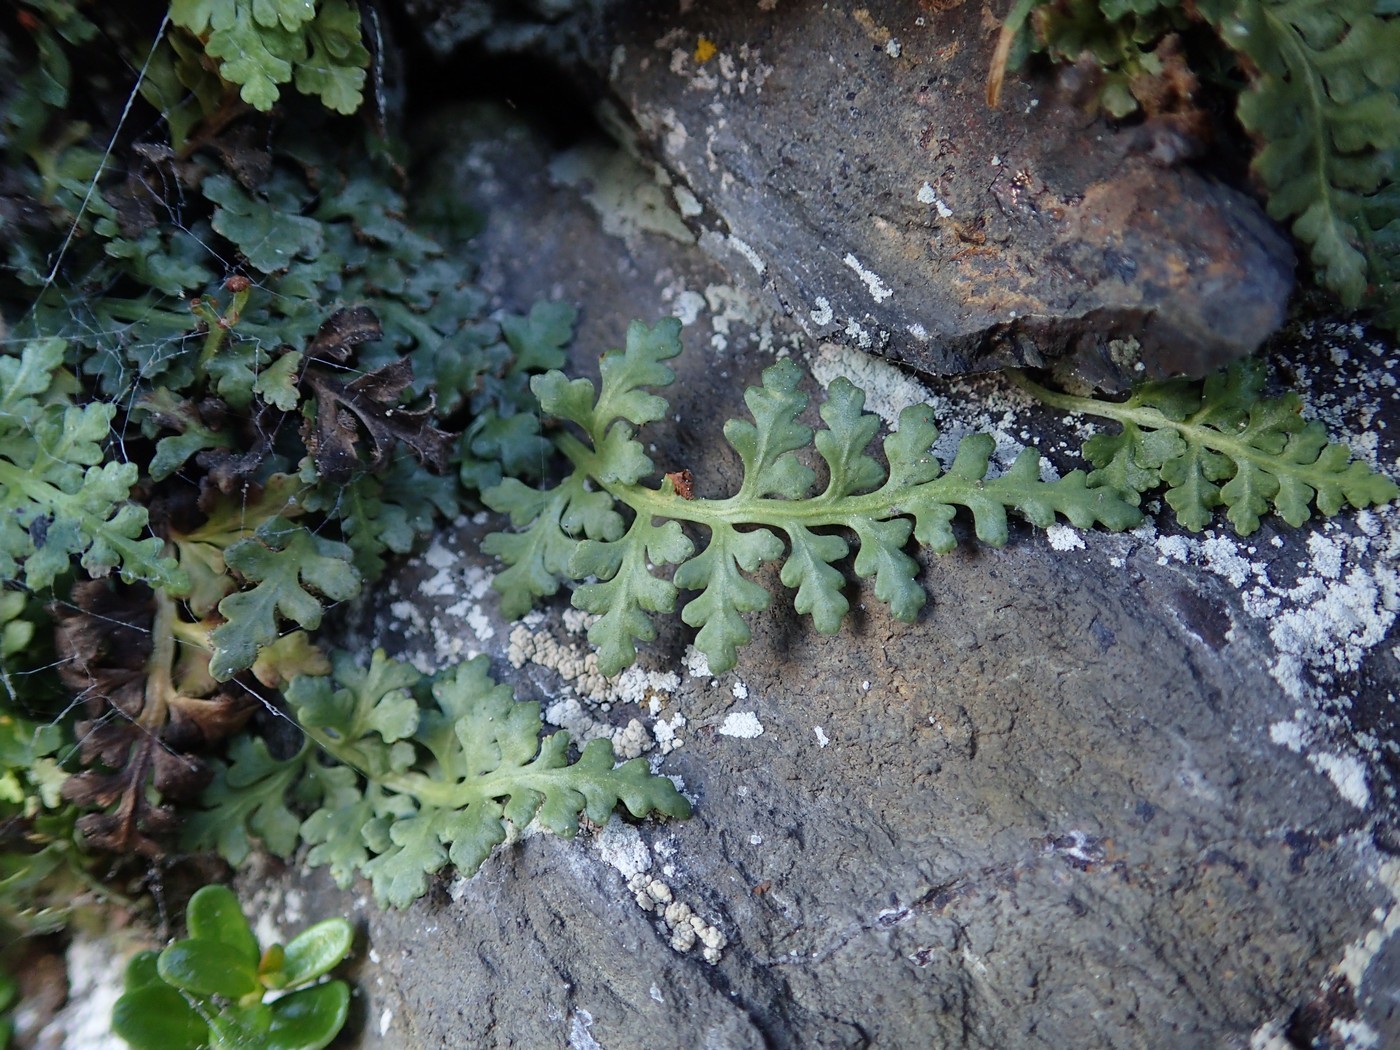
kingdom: Plantae
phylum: Tracheophyta
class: Polypodiopsida
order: Polypodiales
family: Aspleniaceae
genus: Asplenium
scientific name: Asplenium montanum
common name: Mountain spleenwort
